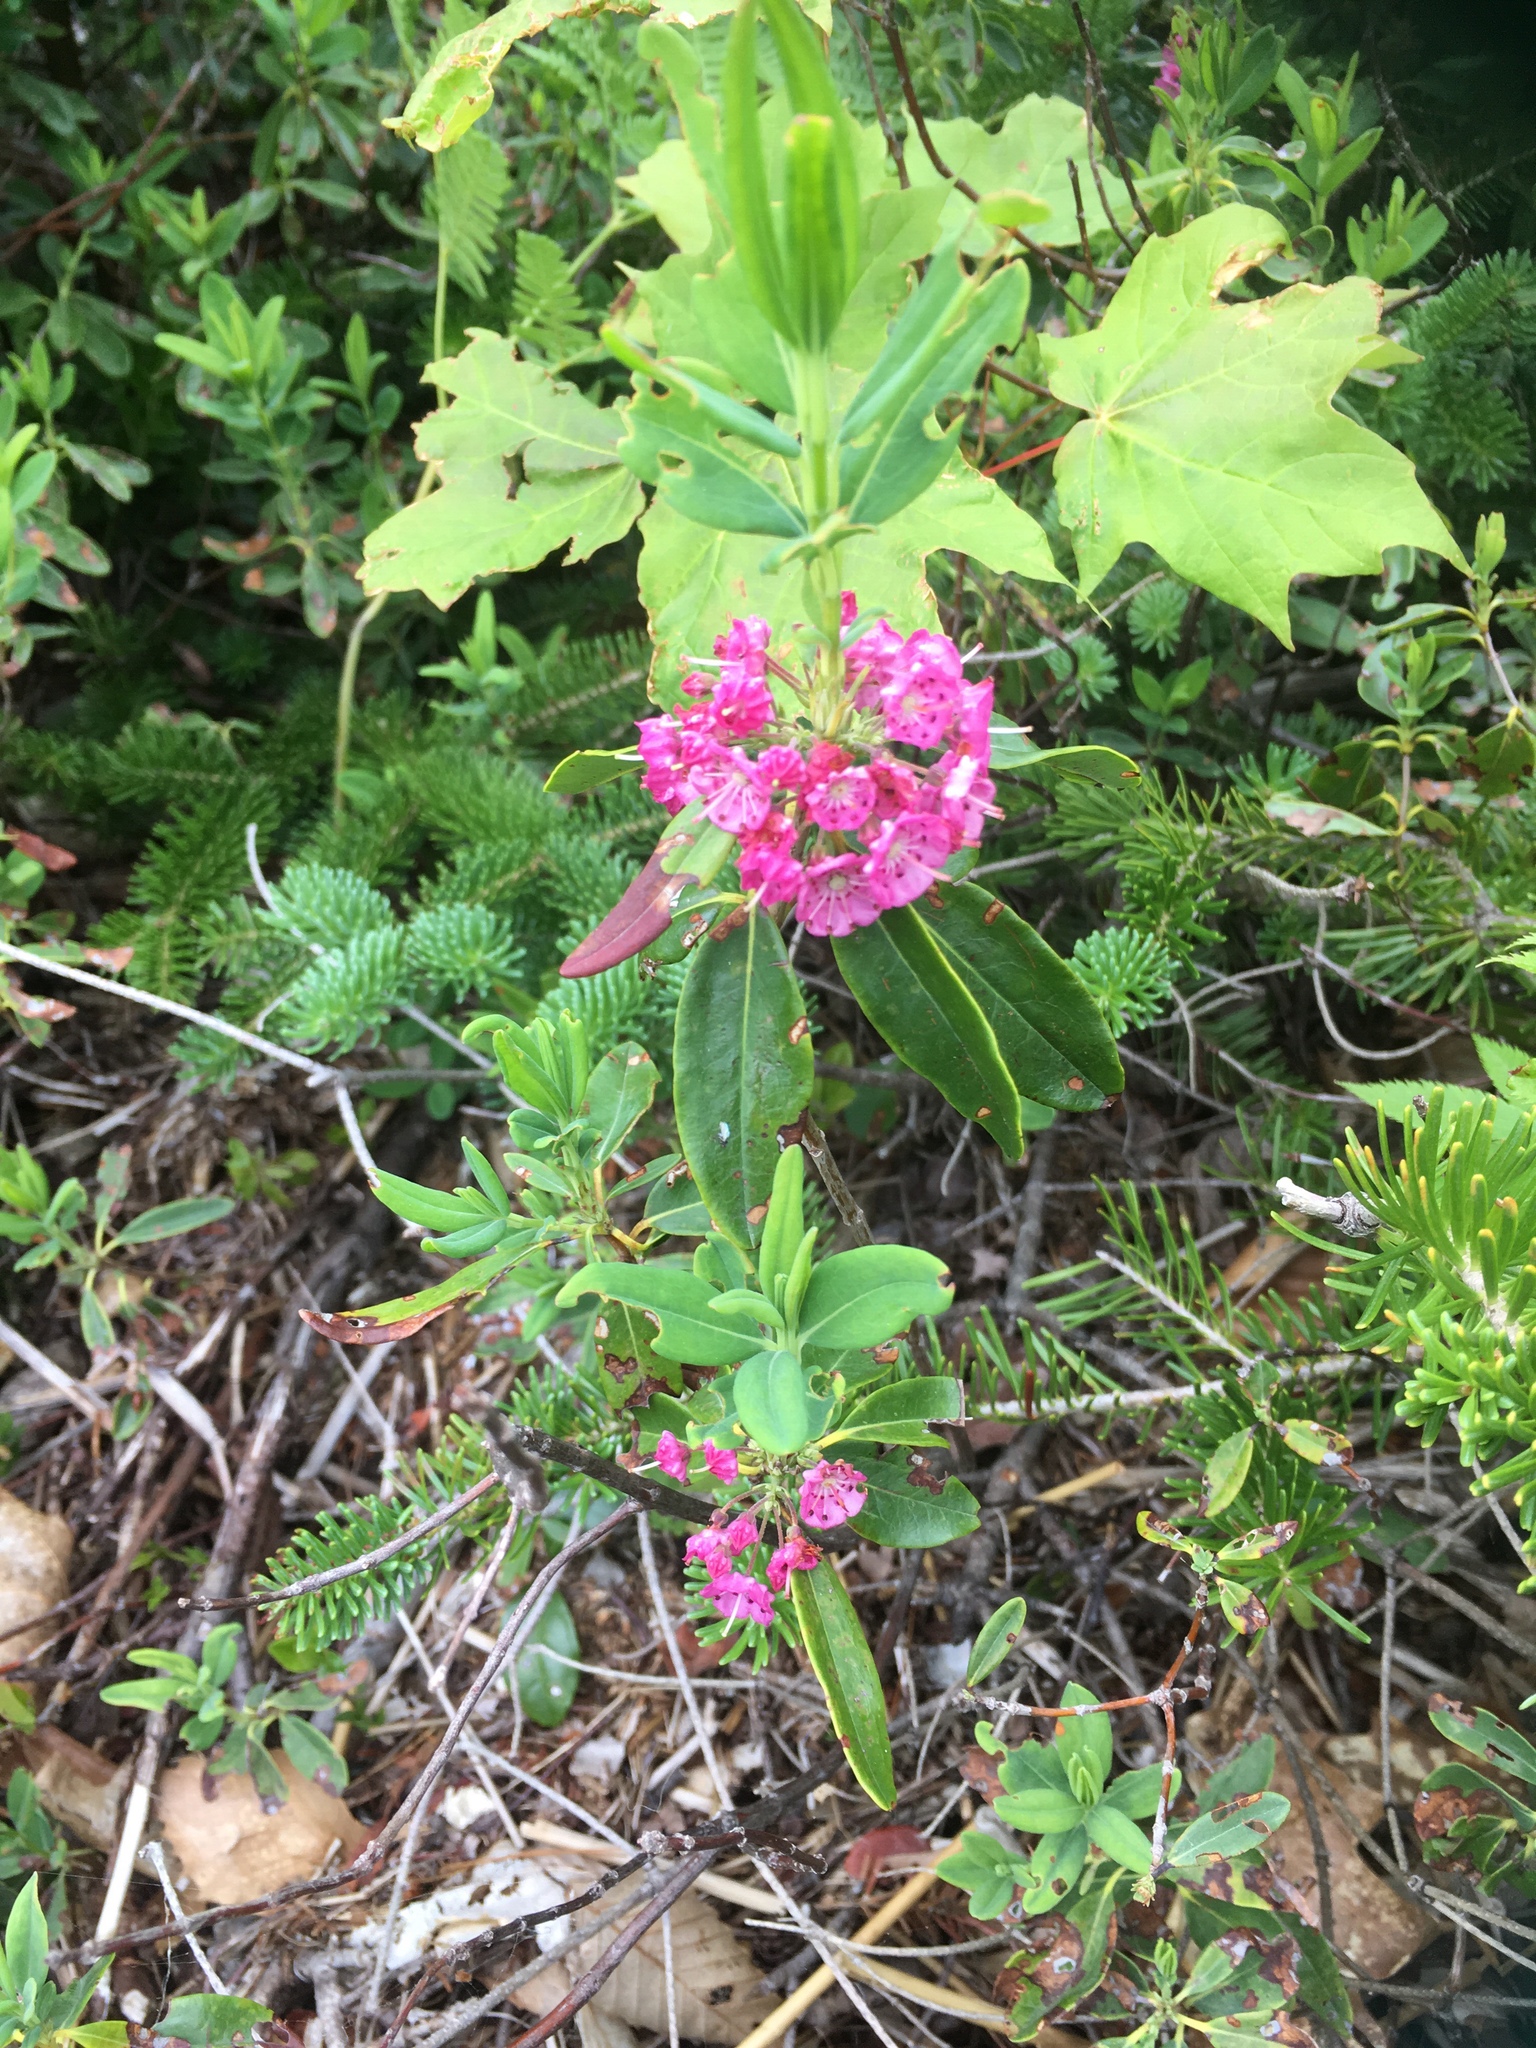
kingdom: Plantae
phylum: Tracheophyta
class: Magnoliopsida
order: Ericales
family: Ericaceae
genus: Kalmia
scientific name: Kalmia angustifolia
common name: Sheep-laurel
